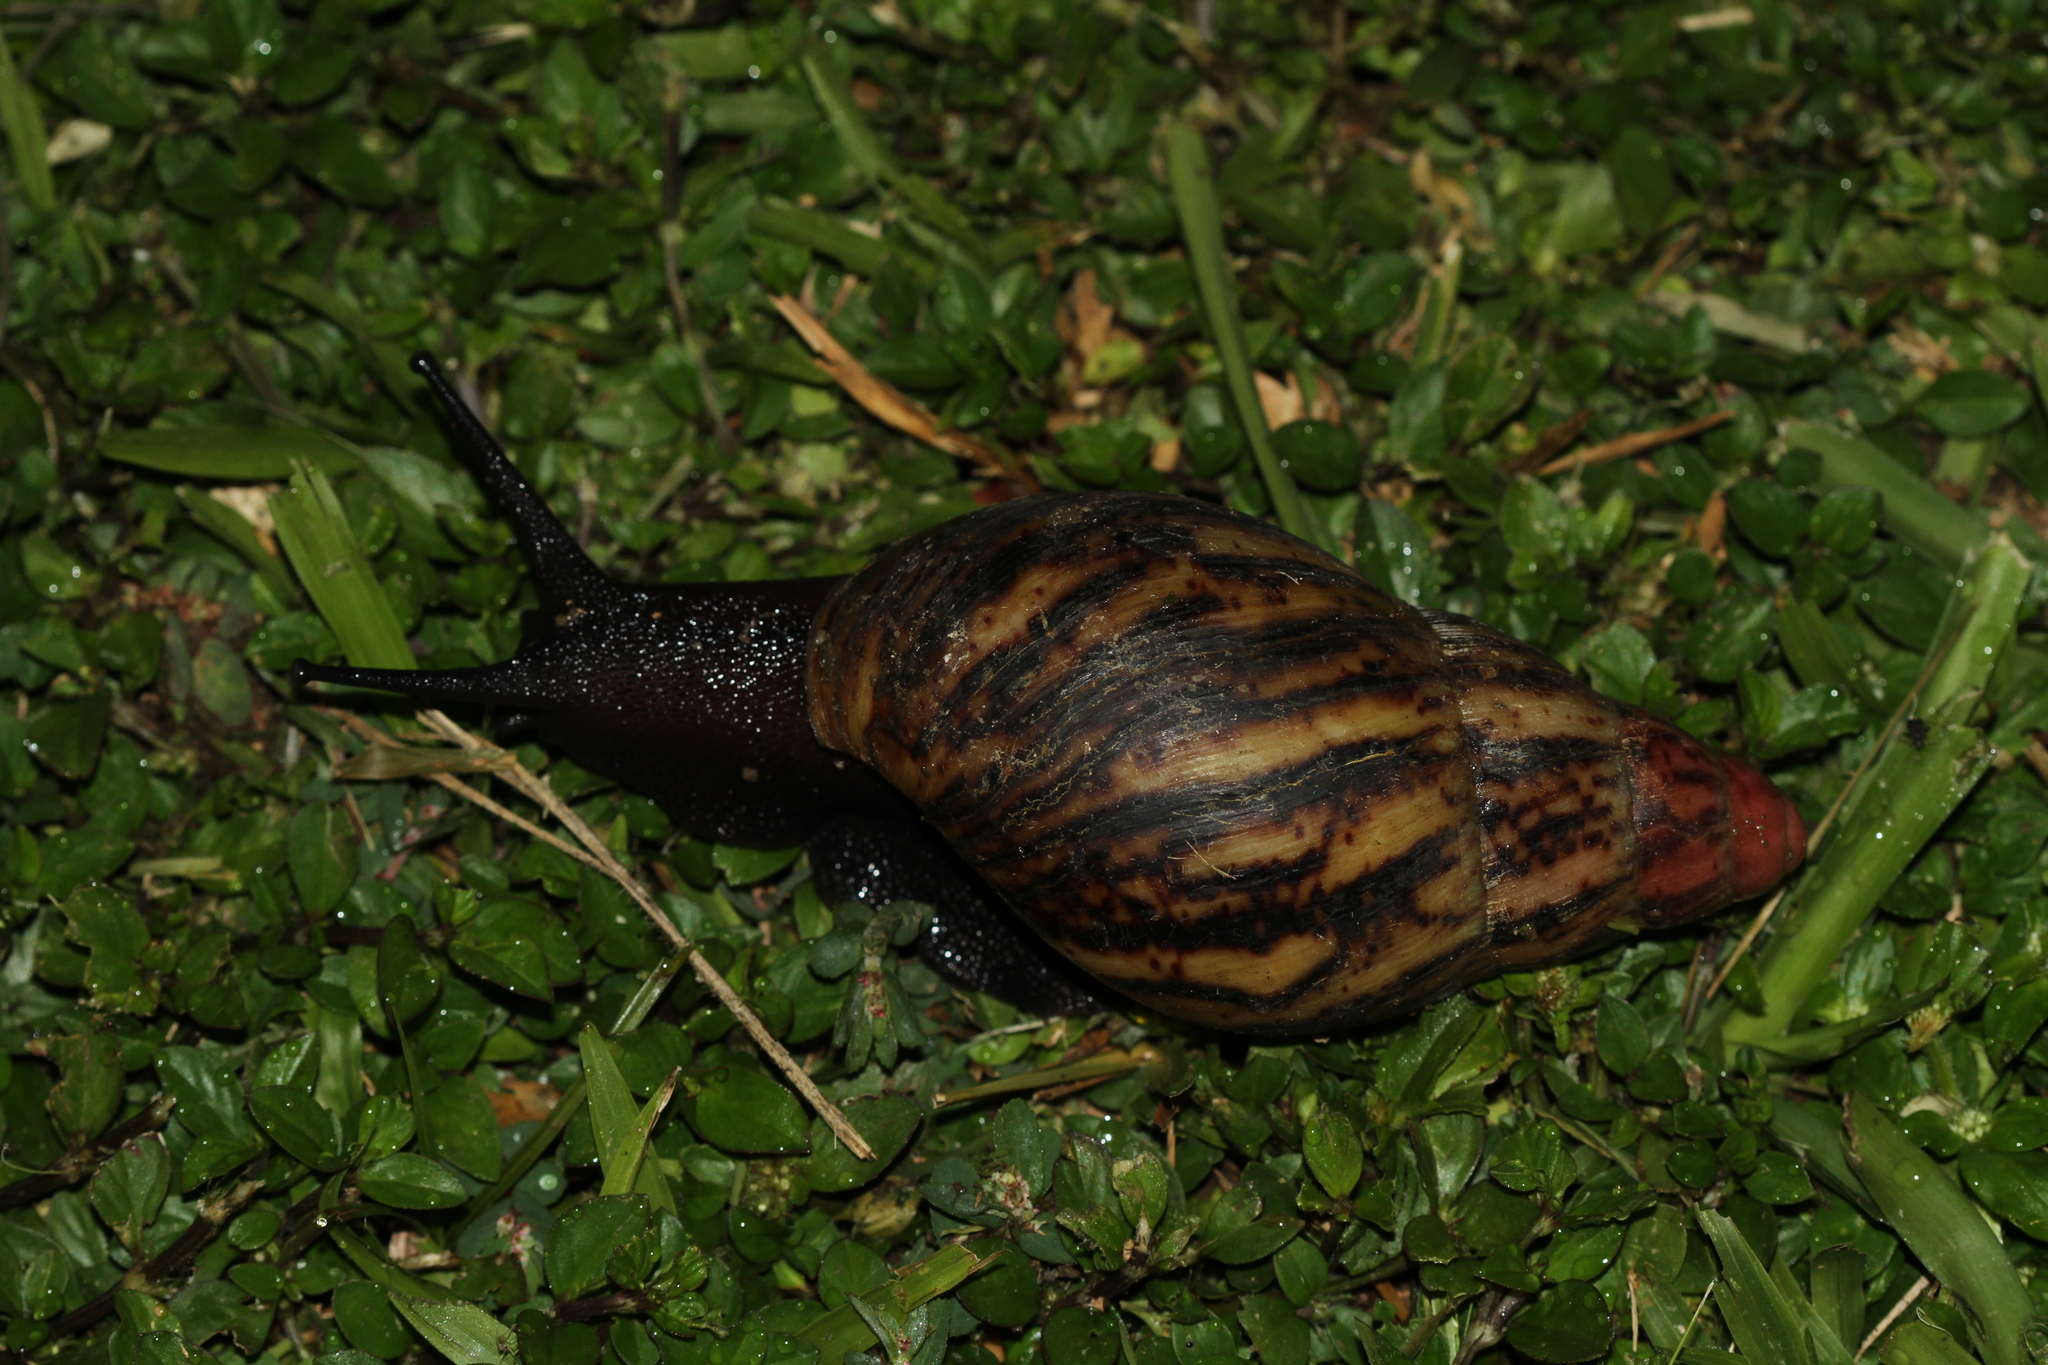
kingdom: Animalia
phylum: Mollusca
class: Gastropoda
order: Stylommatophora
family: Achatinidae
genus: Archachatina
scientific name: Archachatina marginata
